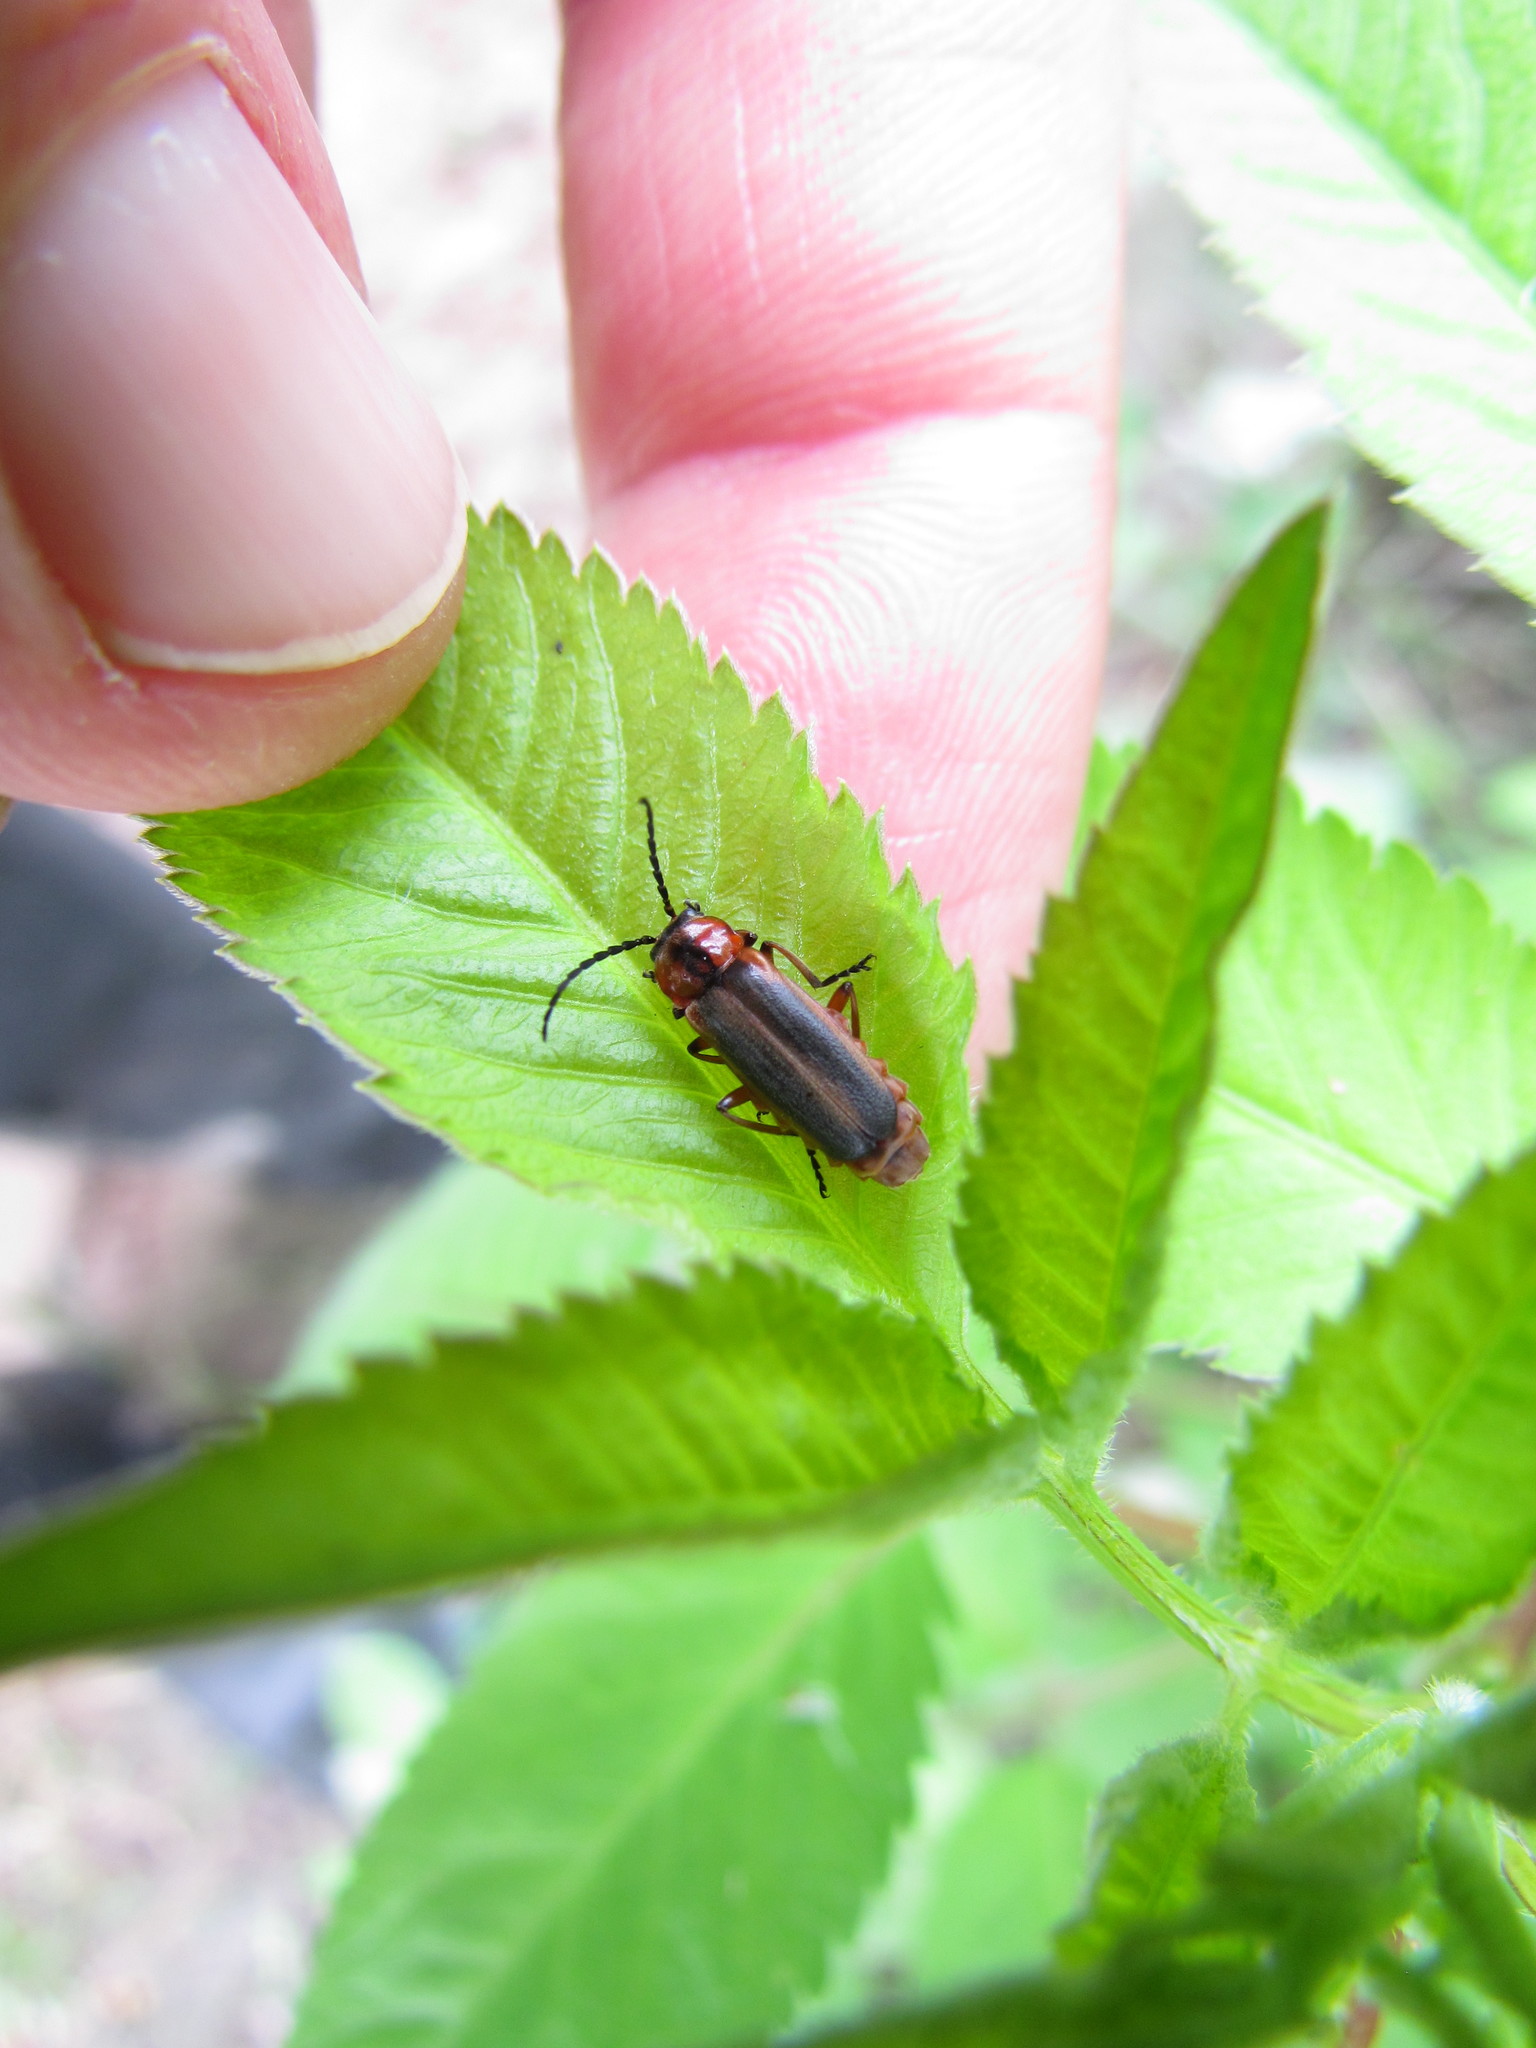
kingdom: Animalia
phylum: Arthropoda
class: Insecta
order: Coleoptera
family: Cantharidae
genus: Discodon
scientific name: Discodon
